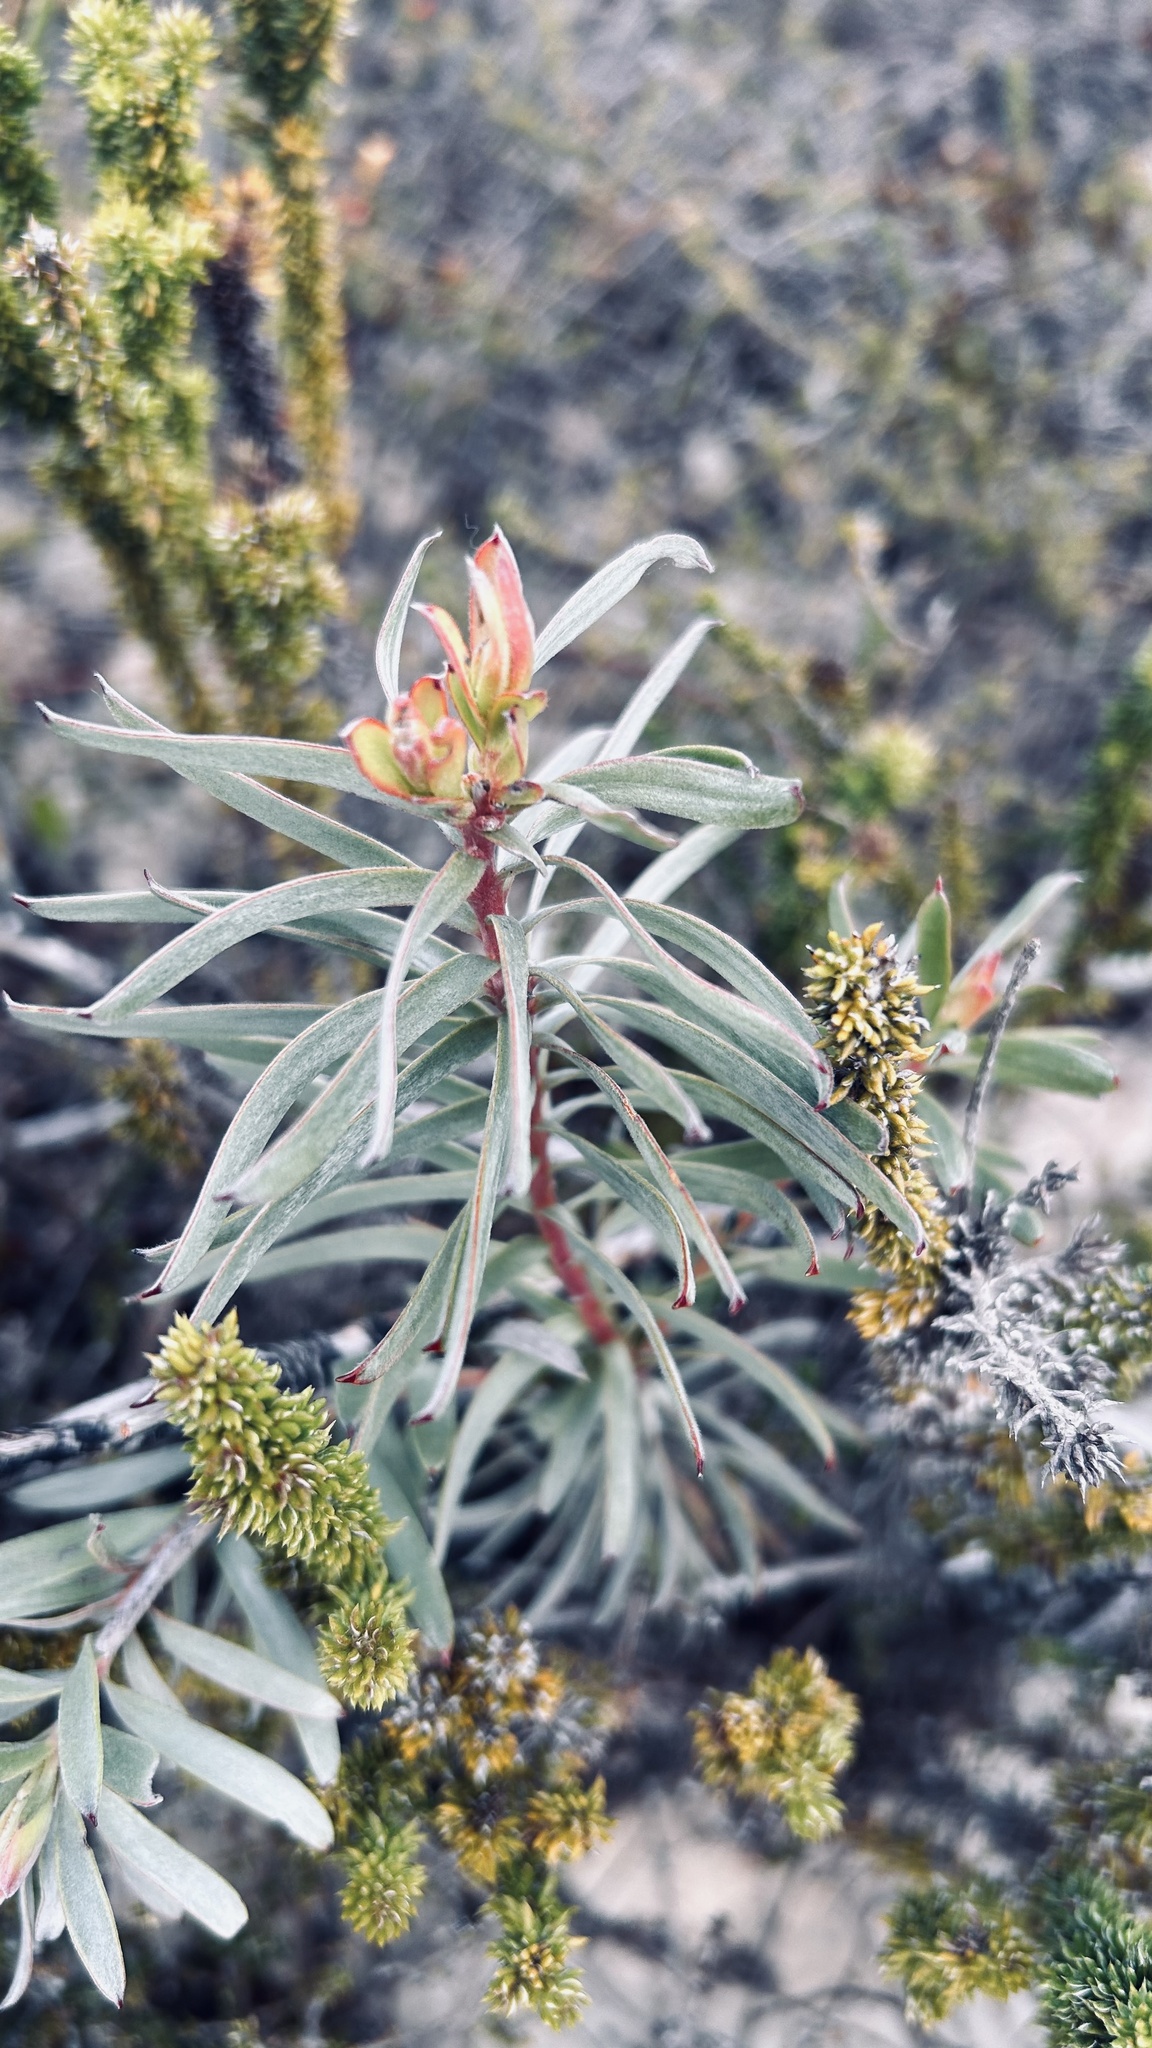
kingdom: Plantae
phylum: Tracheophyta
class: Magnoliopsida
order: Proteales
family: Proteaceae
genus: Leucadendron
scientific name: Leucadendron galpinii
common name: Hairless conebush
